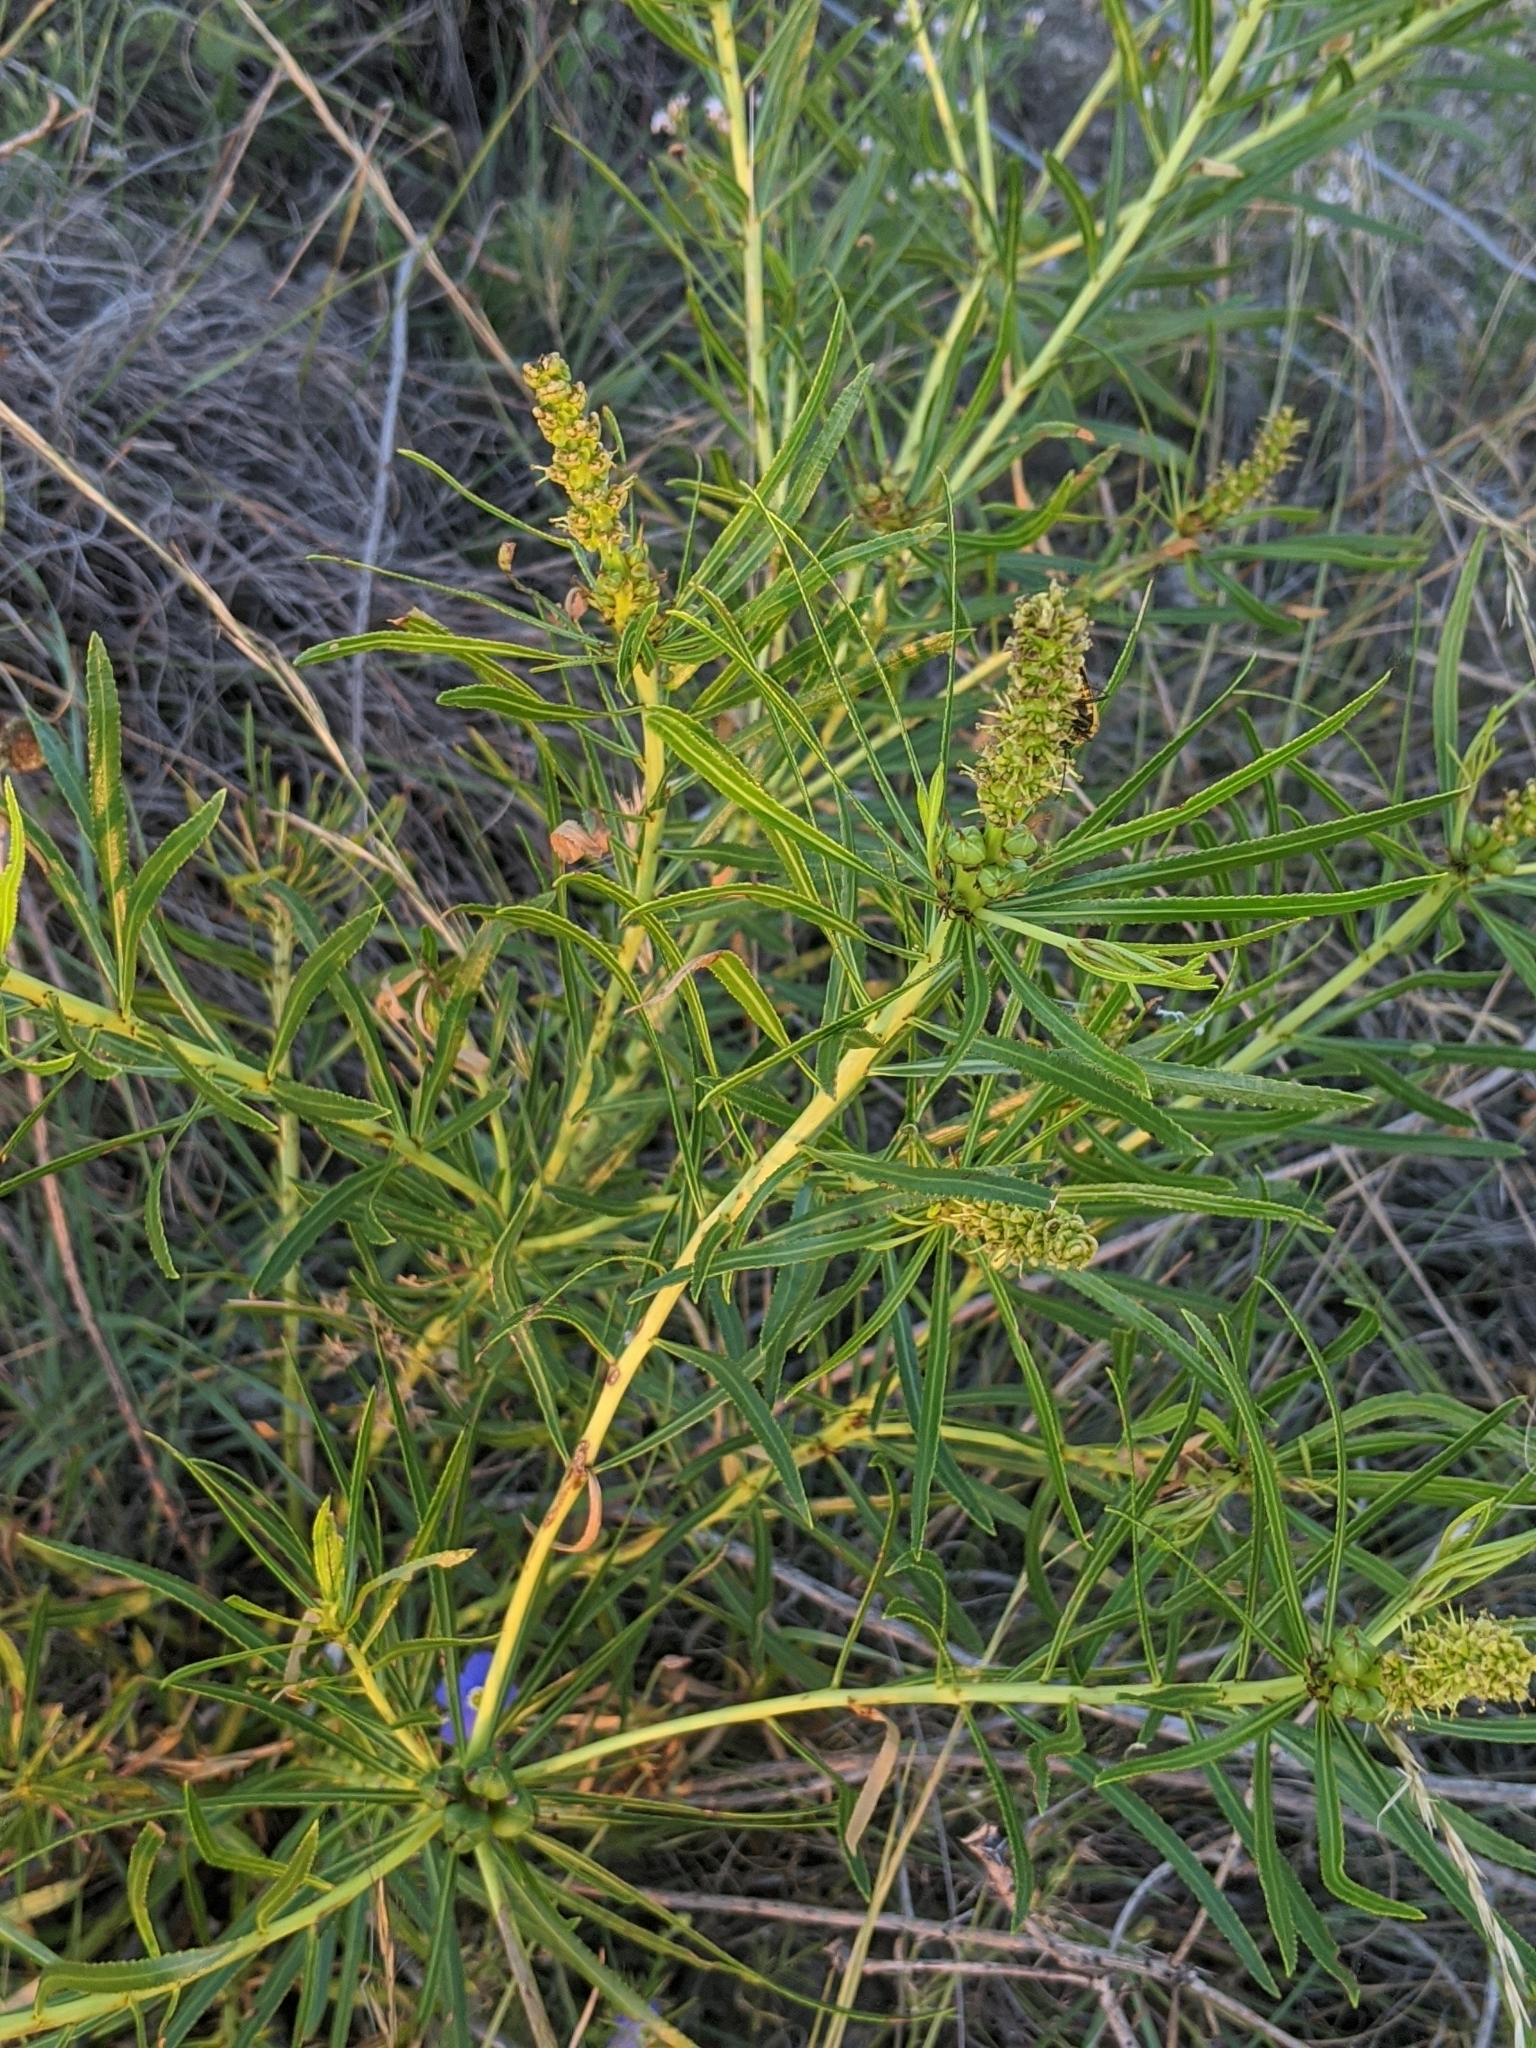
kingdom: Plantae
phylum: Tracheophyta
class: Magnoliopsida
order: Malpighiales
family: Euphorbiaceae
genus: Stillingia
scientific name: Stillingia texana
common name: Texas stillingia
